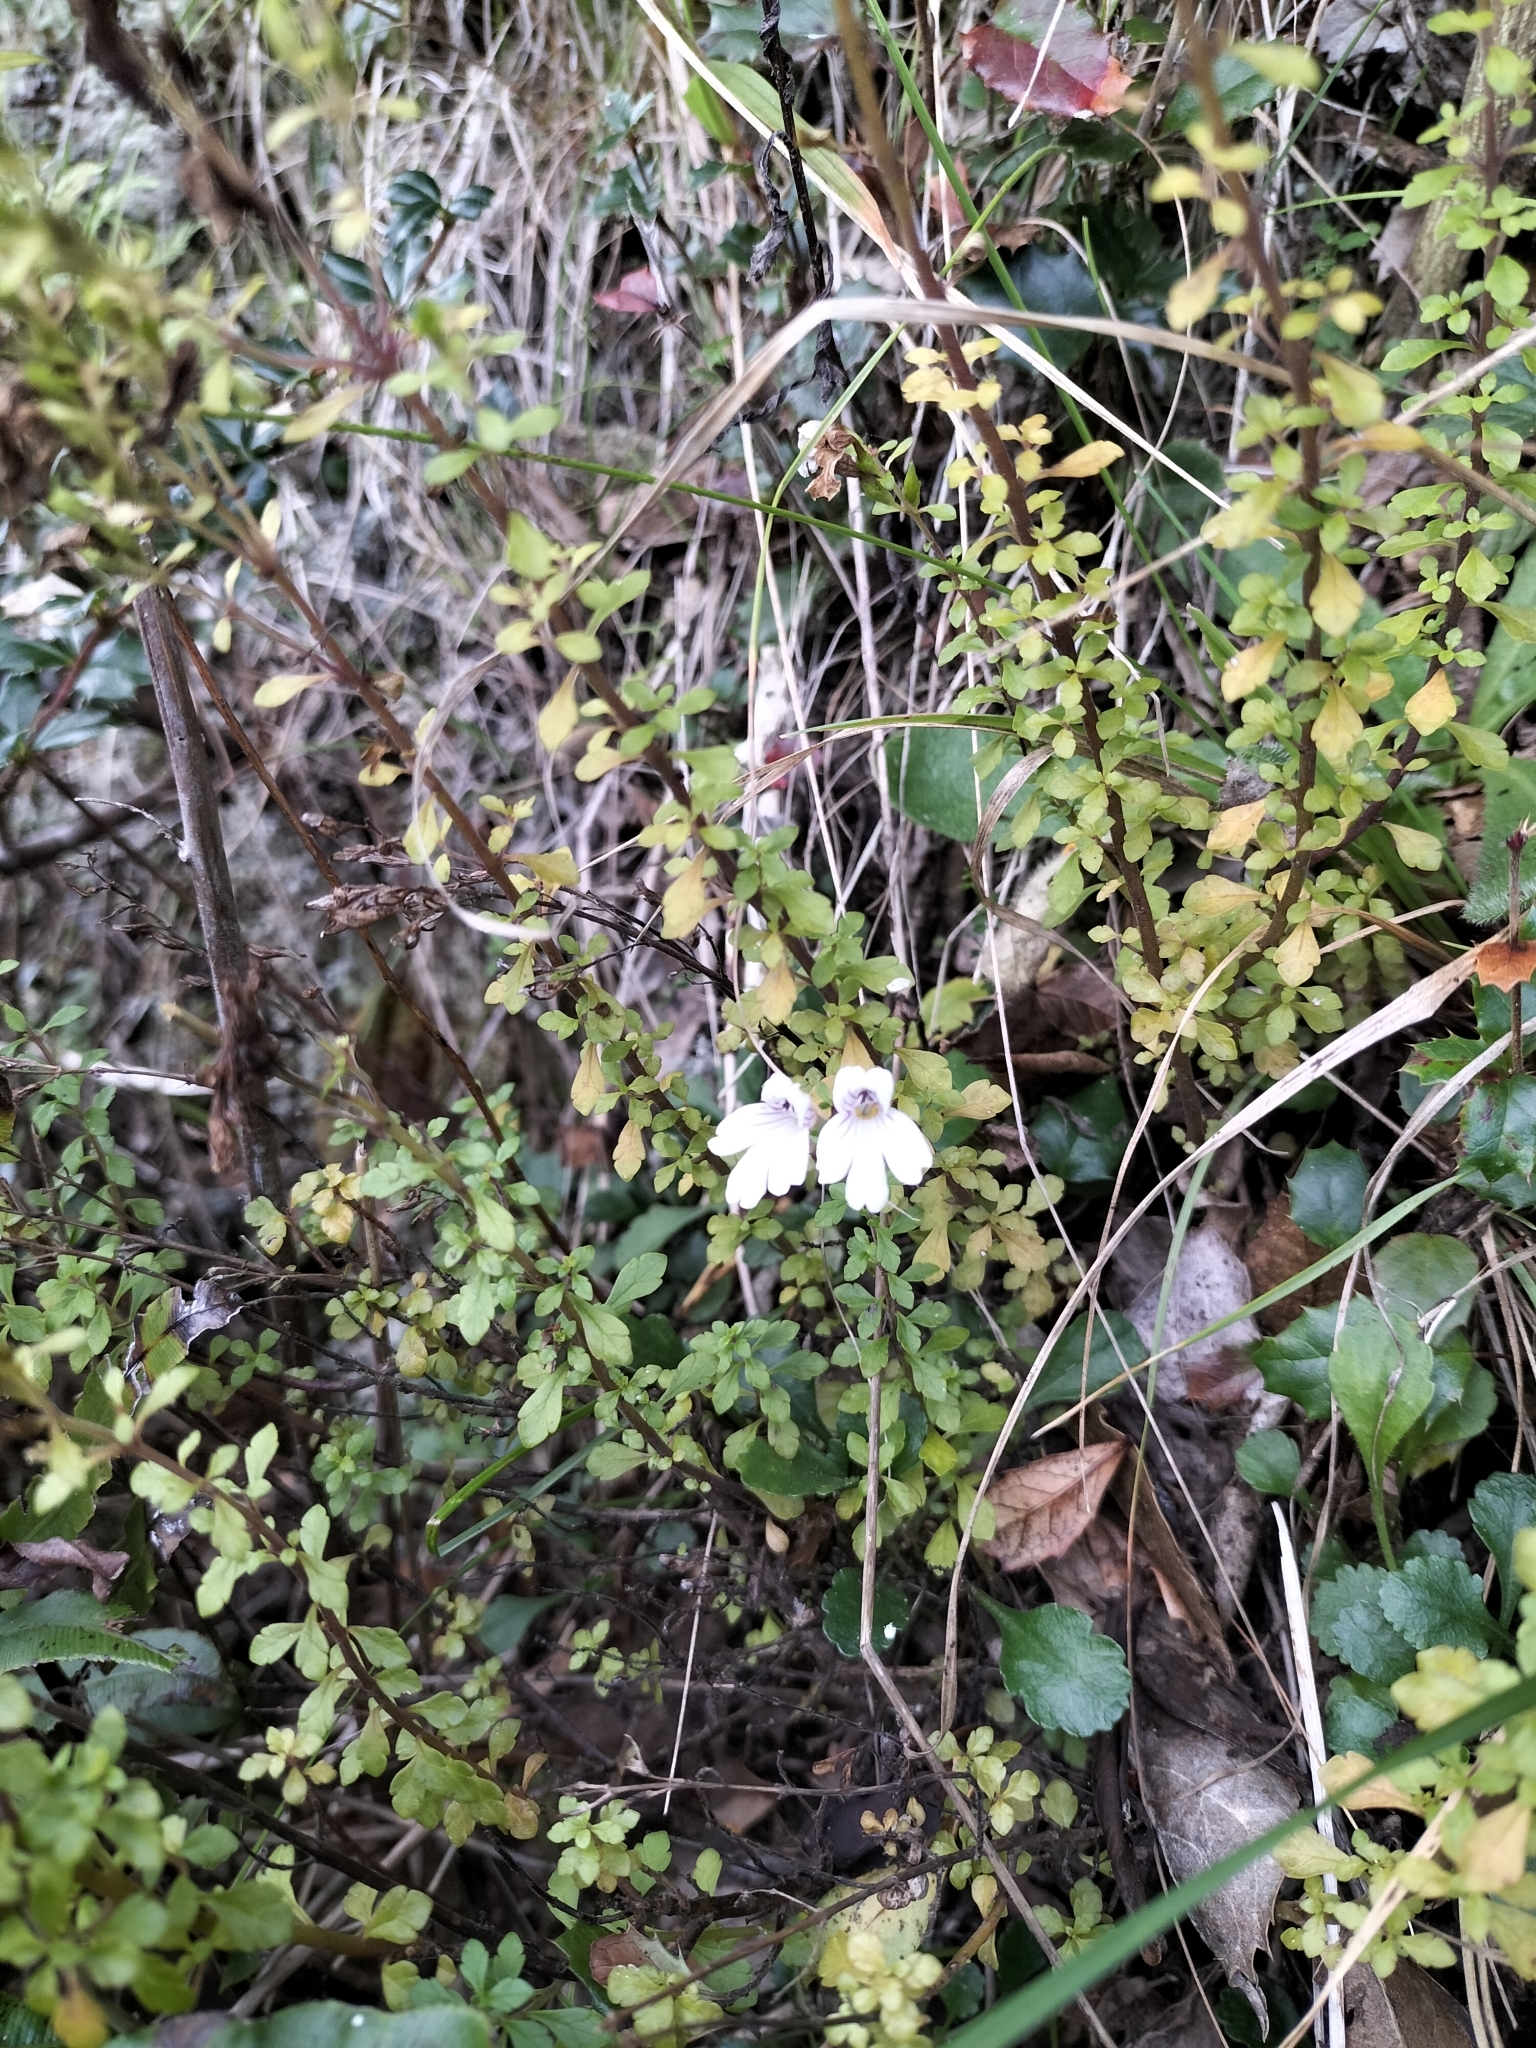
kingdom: Plantae
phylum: Tracheophyta
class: Magnoliopsida
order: Lamiales
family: Orobanchaceae
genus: Euphrasia
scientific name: Euphrasia cuneata
